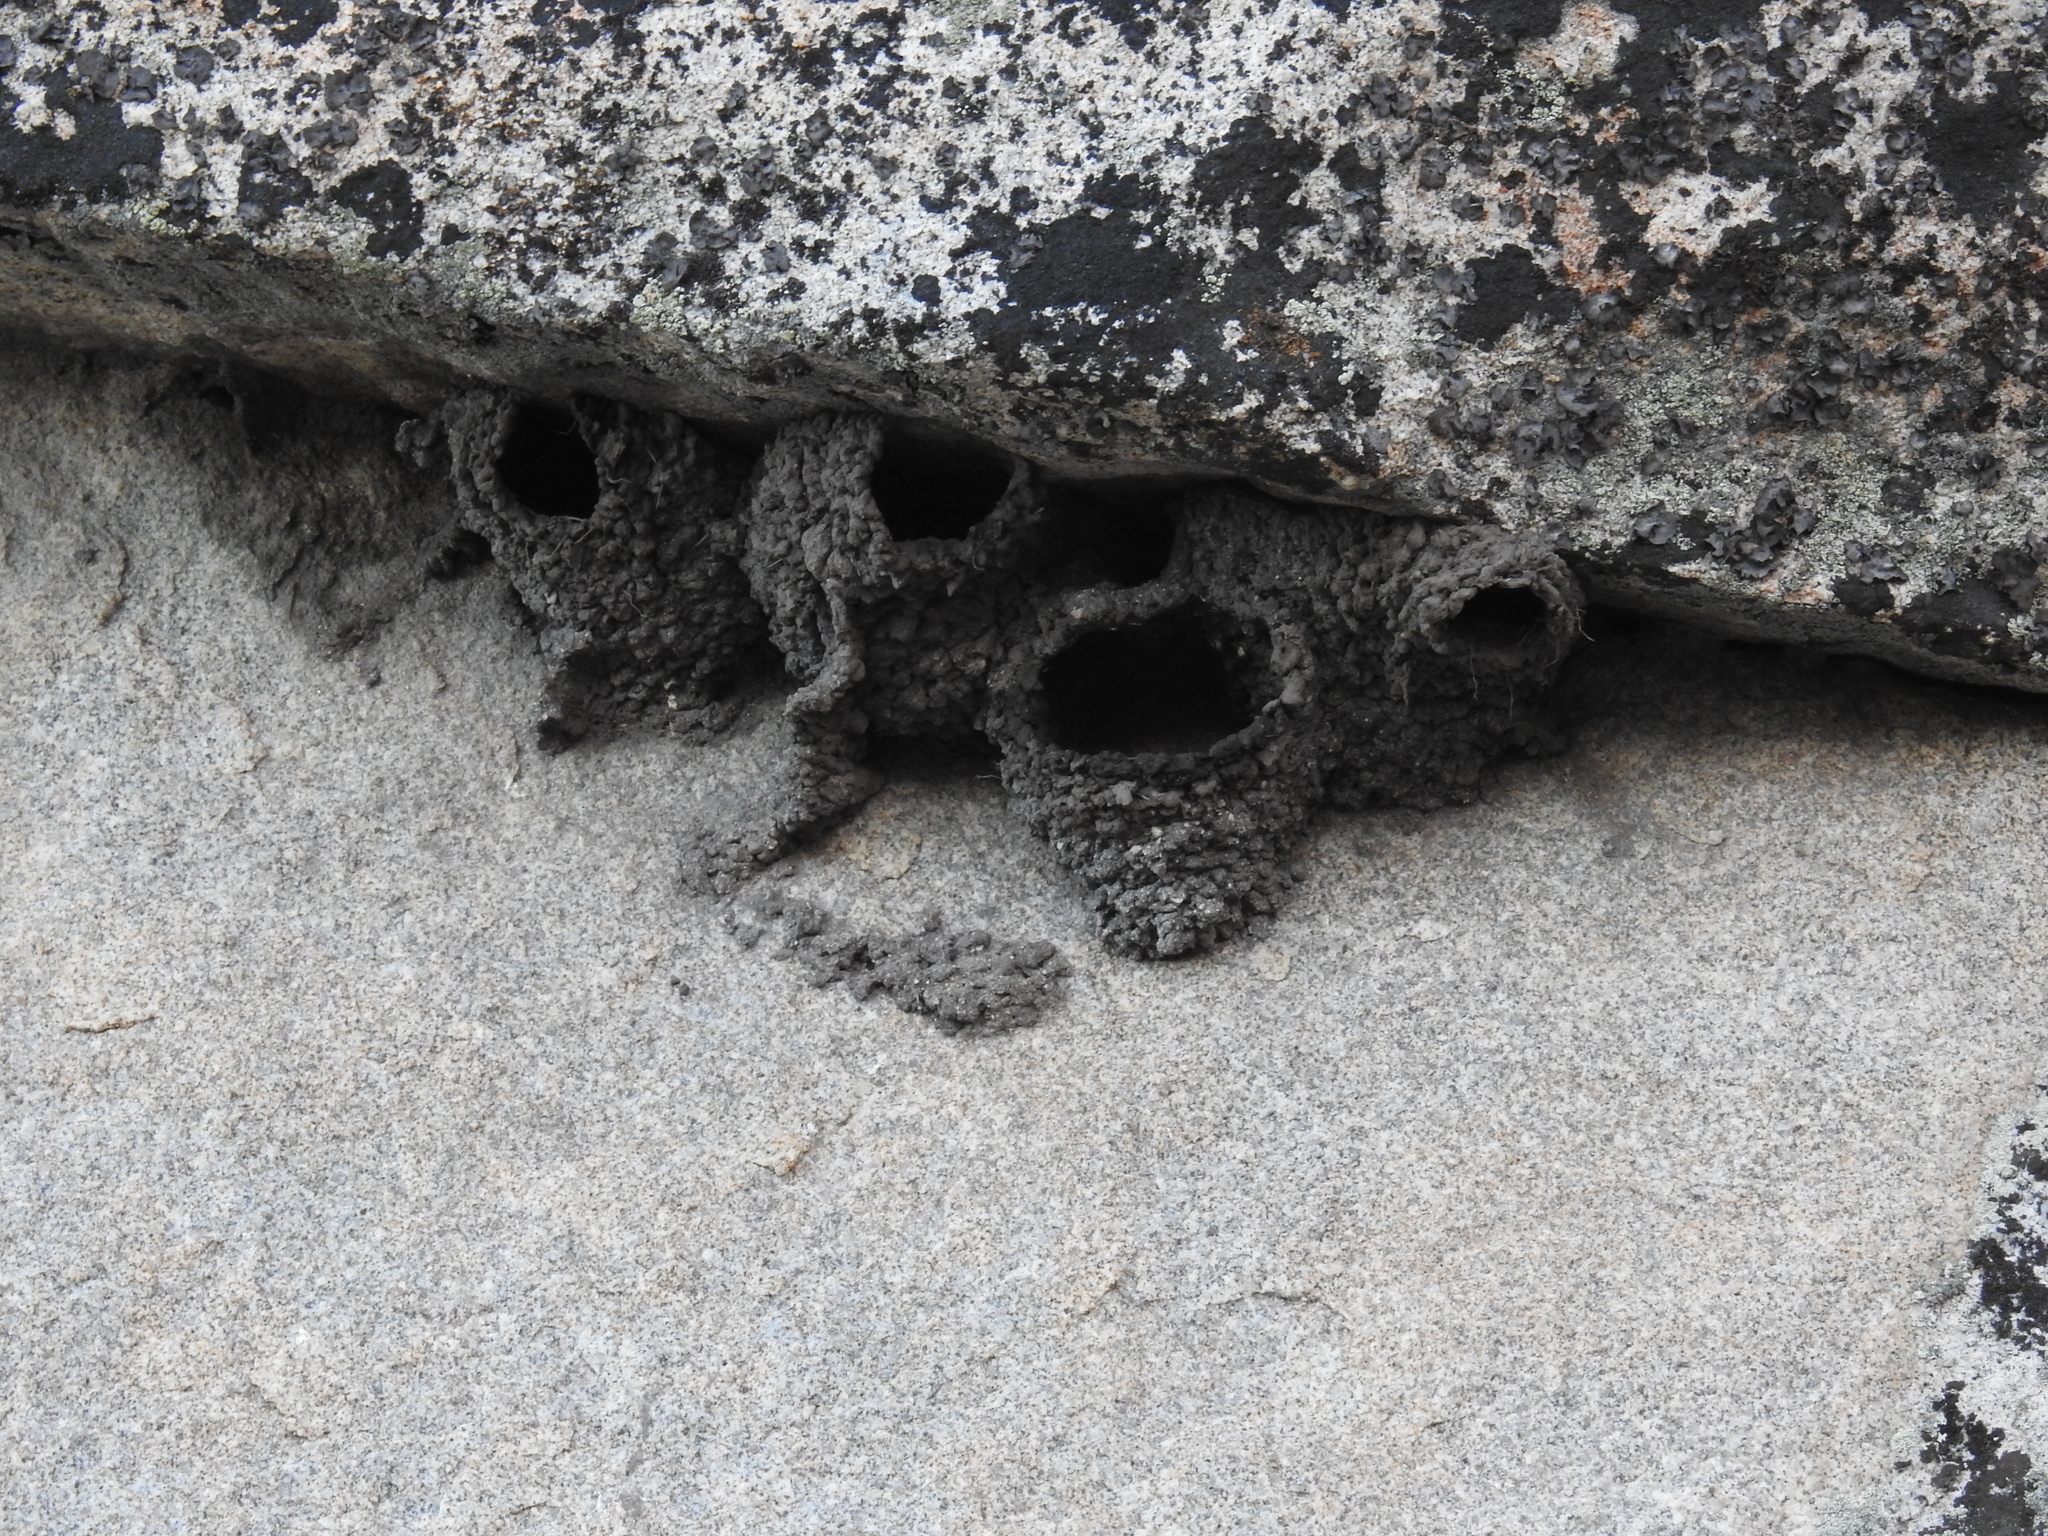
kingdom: Animalia
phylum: Chordata
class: Aves
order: Passeriformes
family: Hirundinidae
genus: Petrochelidon
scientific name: Petrochelidon pyrrhonota
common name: American cliff swallow
